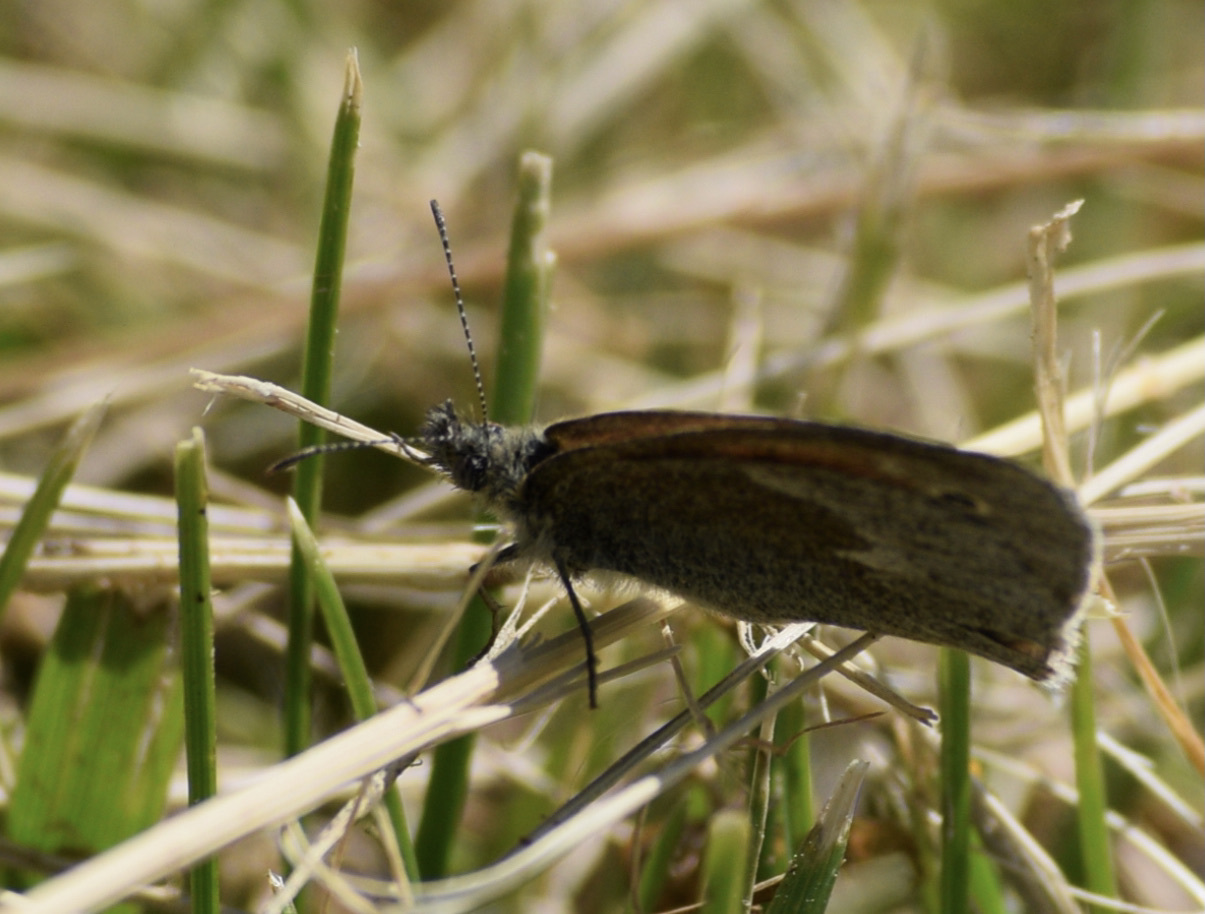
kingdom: Animalia
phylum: Arthropoda
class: Insecta
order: Lepidoptera
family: Nymphalidae
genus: Coenonympha
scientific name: Coenonympha california
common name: Common ringlet
